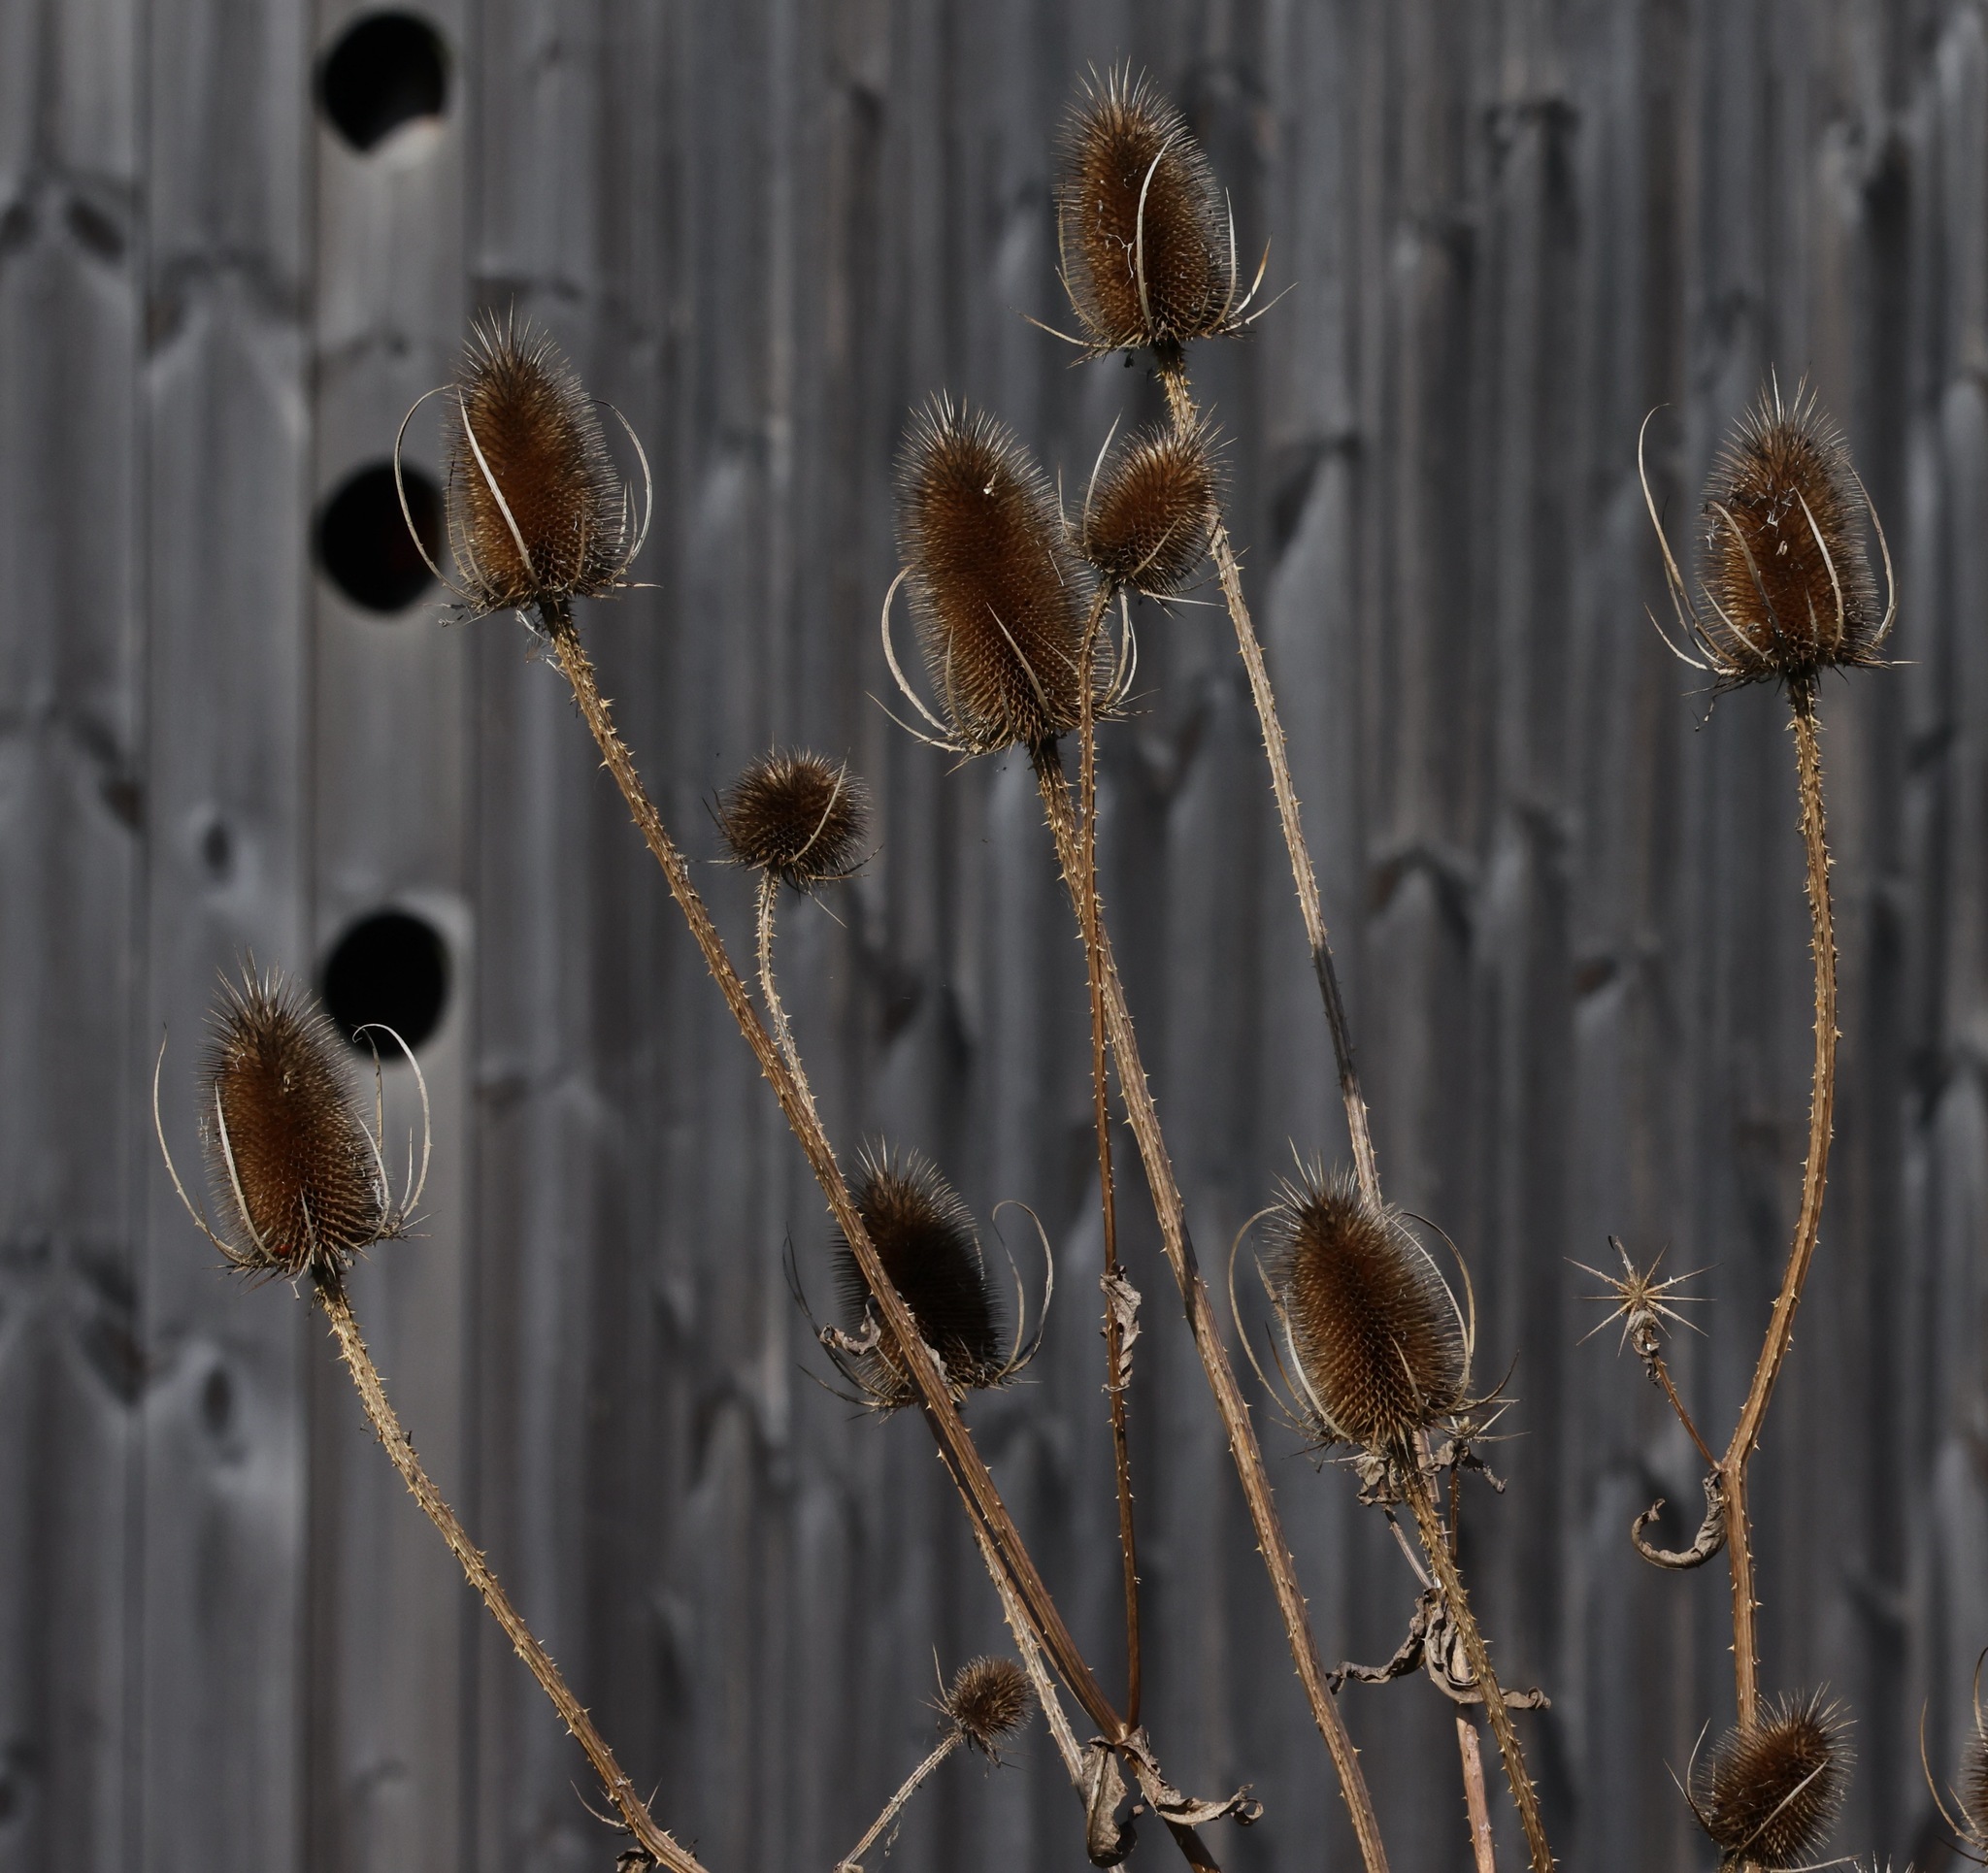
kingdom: Plantae
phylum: Tracheophyta
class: Magnoliopsida
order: Dipsacales
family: Caprifoliaceae
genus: Dipsacus
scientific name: Dipsacus fullonum
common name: Teasel
